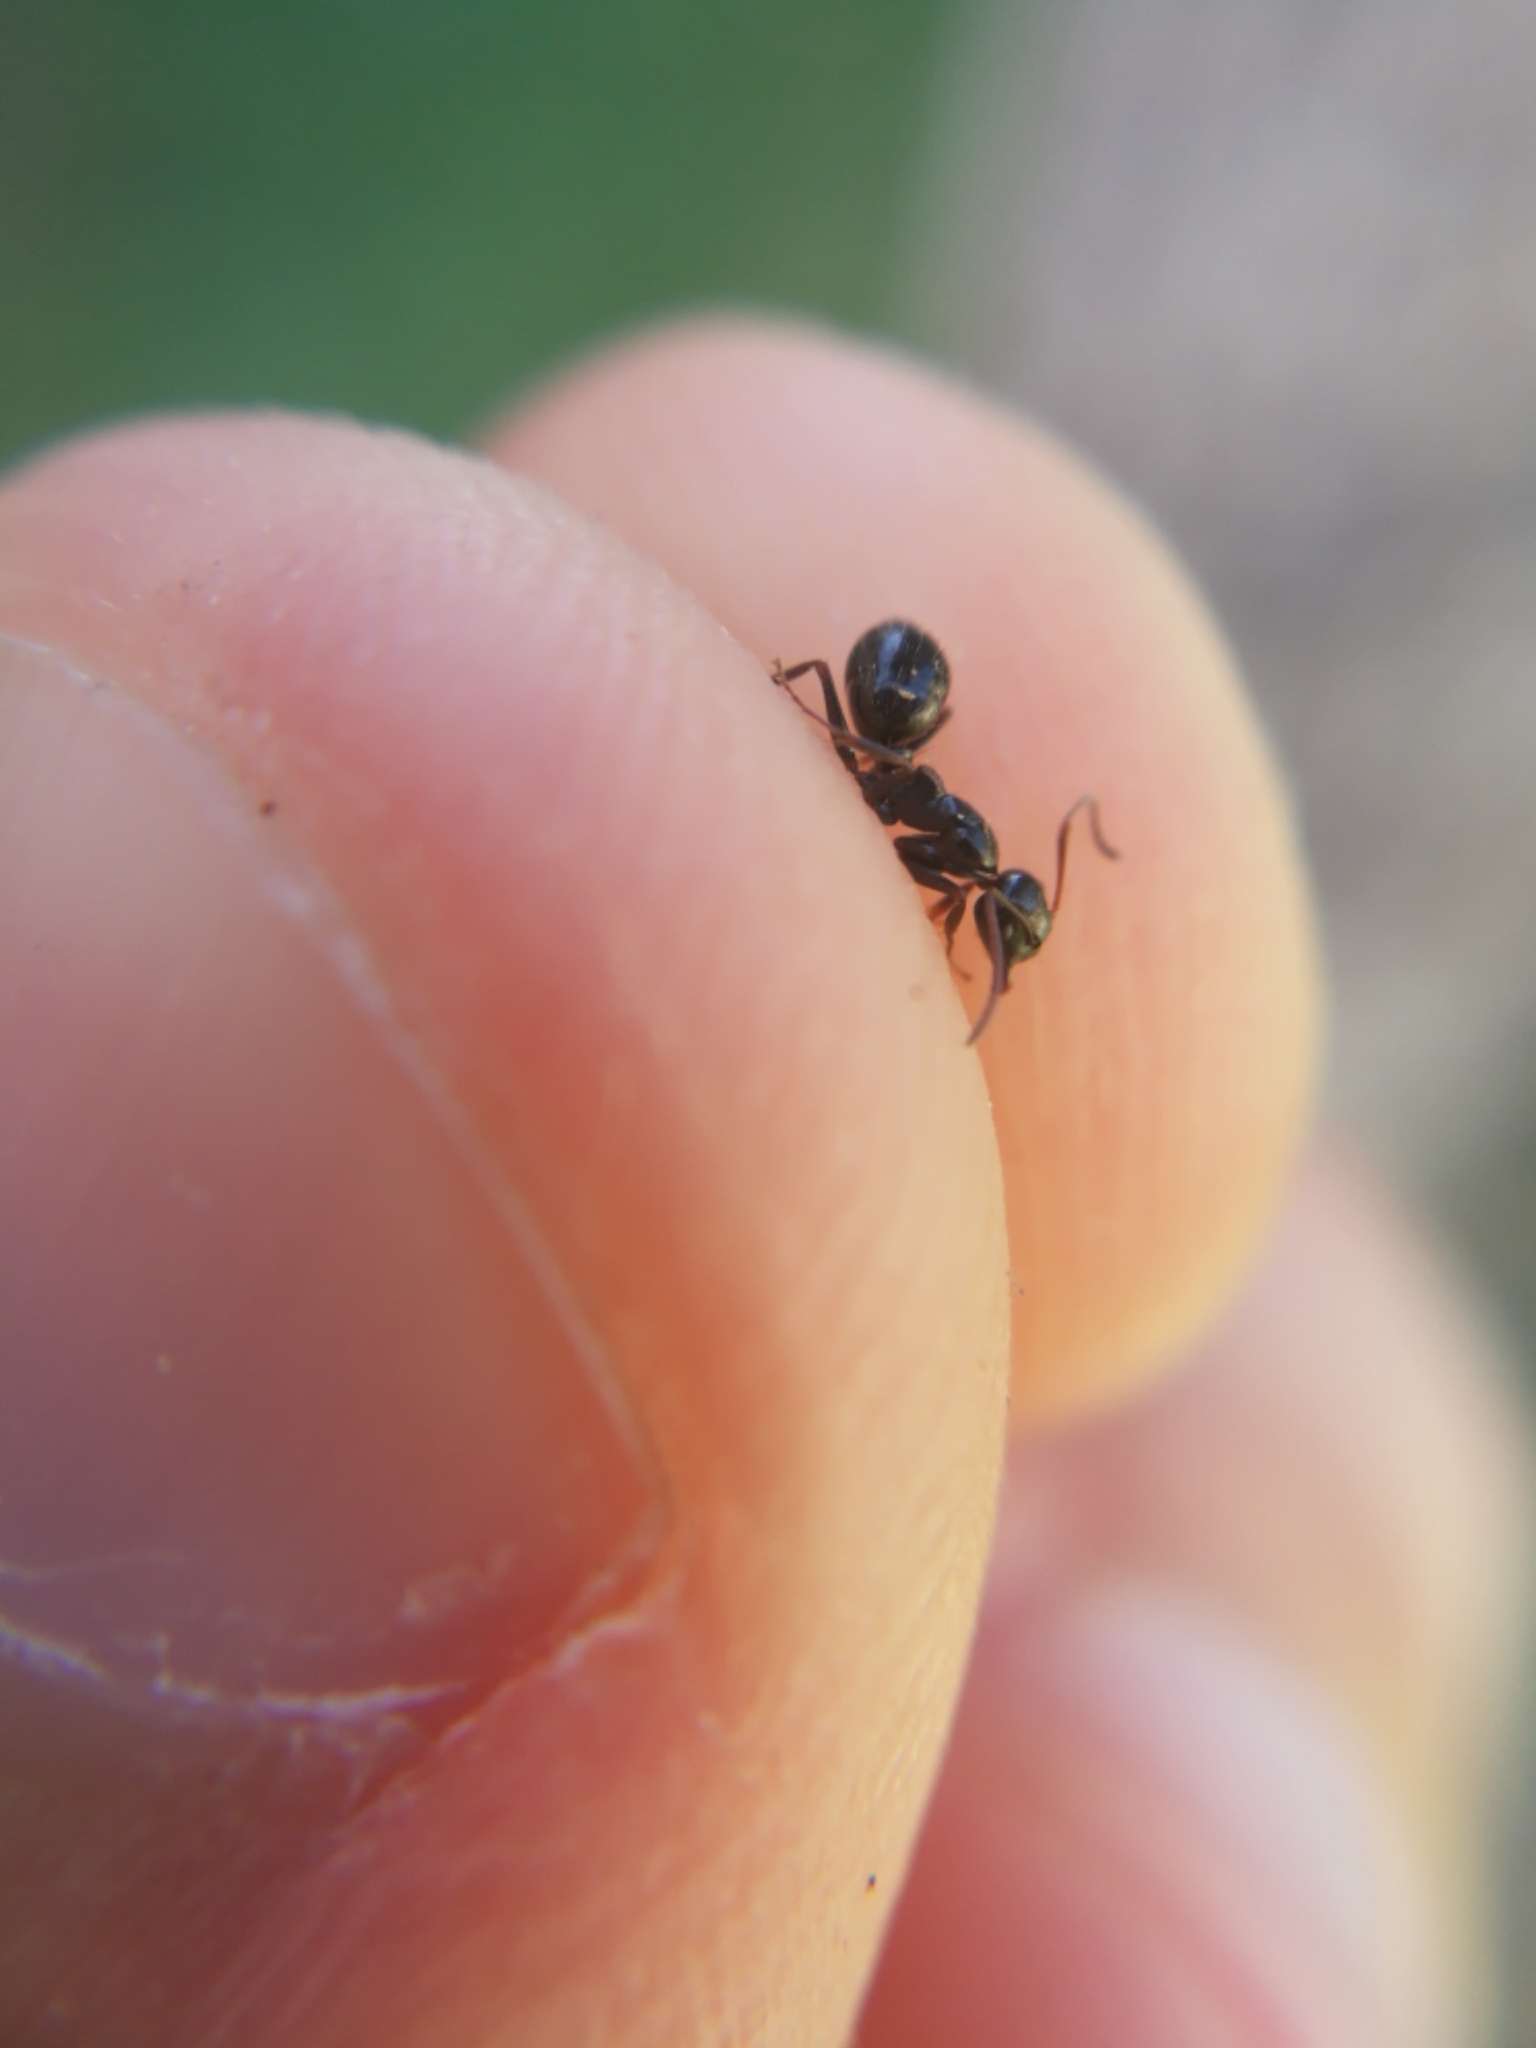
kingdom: Animalia
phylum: Arthropoda
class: Insecta
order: Hymenoptera
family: Formicidae
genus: Camponotus
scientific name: Camponotus piceus
